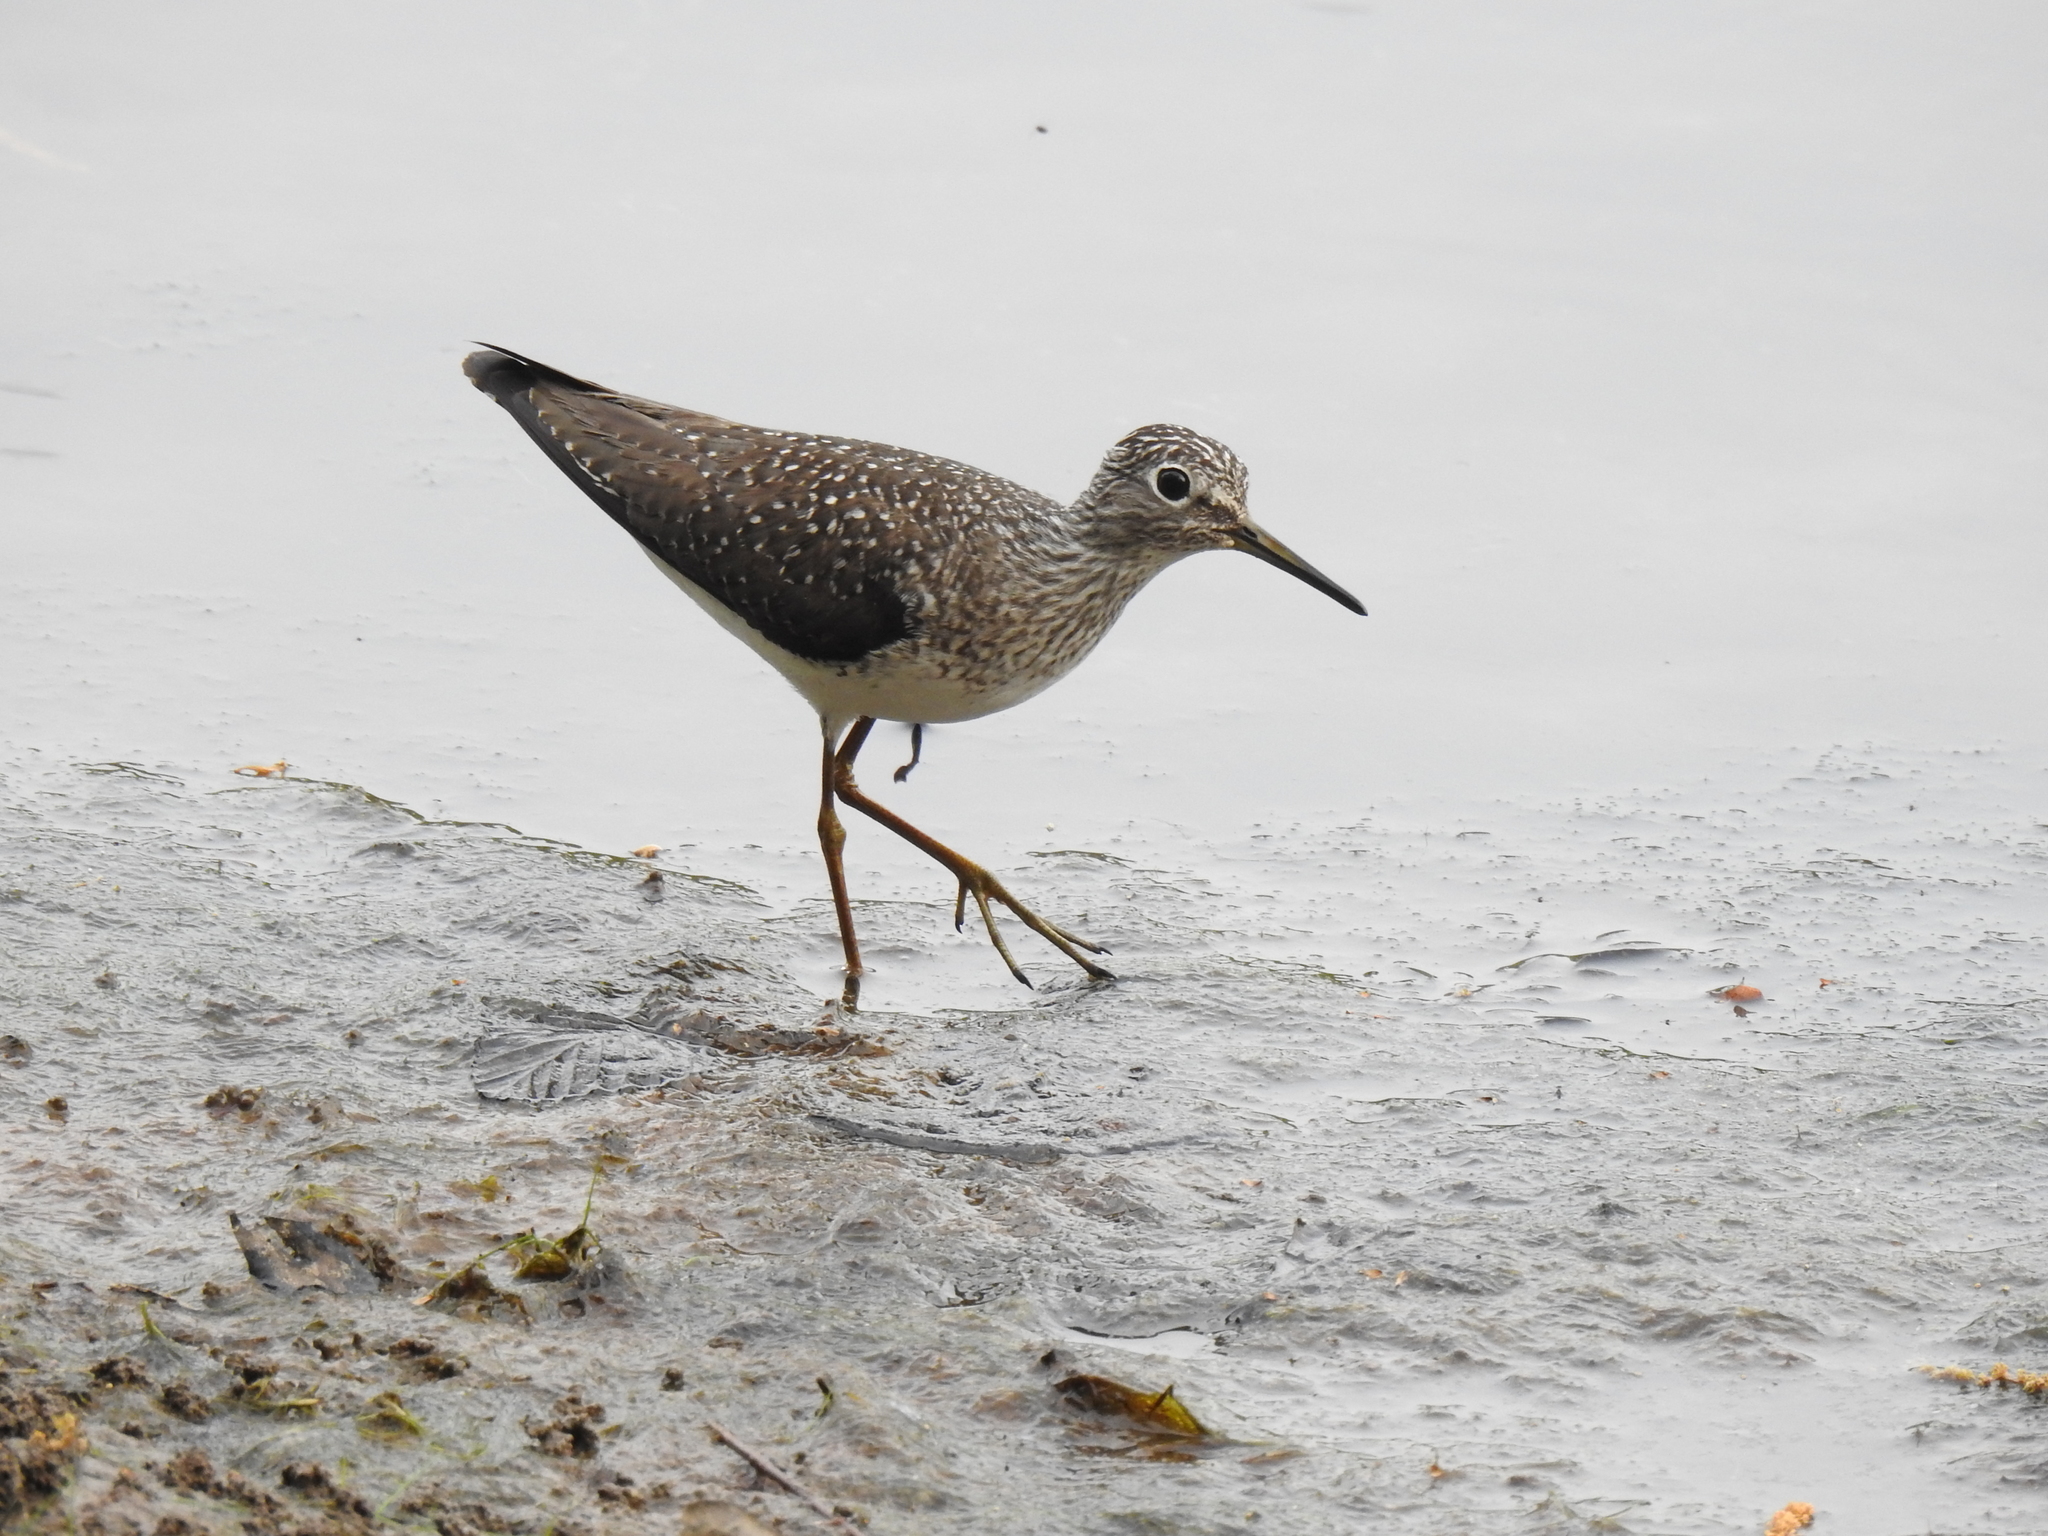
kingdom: Animalia
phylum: Chordata
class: Aves
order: Charadriiformes
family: Scolopacidae
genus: Tringa
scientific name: Tringa solitaria
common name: Solitary sandpiper
